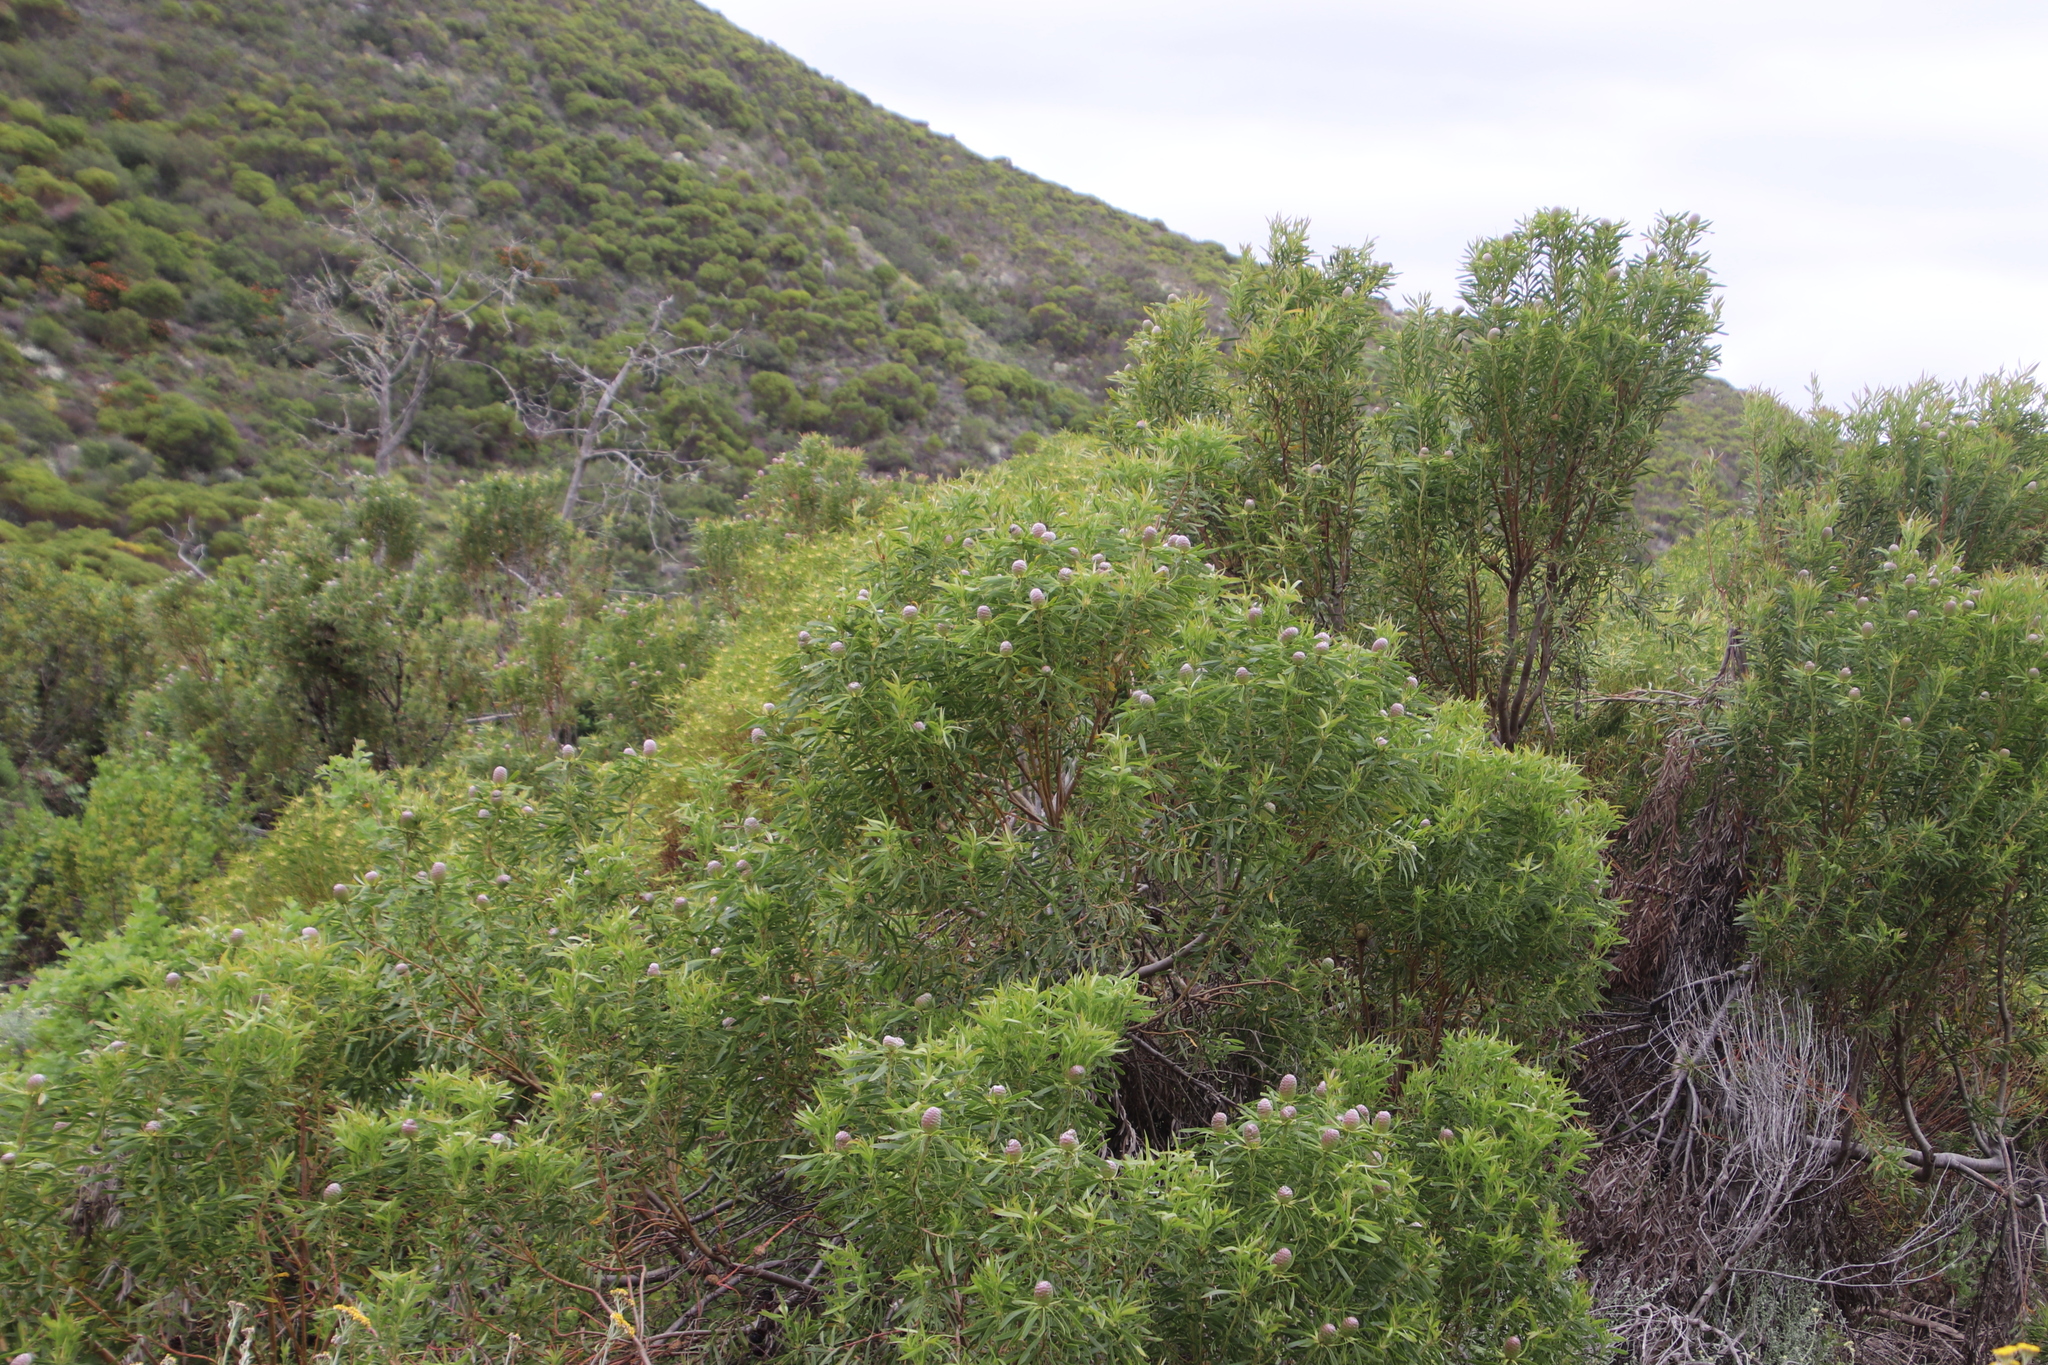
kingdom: Plantae
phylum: Tracheophyta
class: Magnoliopsida
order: Proteales
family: Proteaceae
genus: Leucadendron
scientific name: Leucadendron coniferum
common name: Dune conebush
